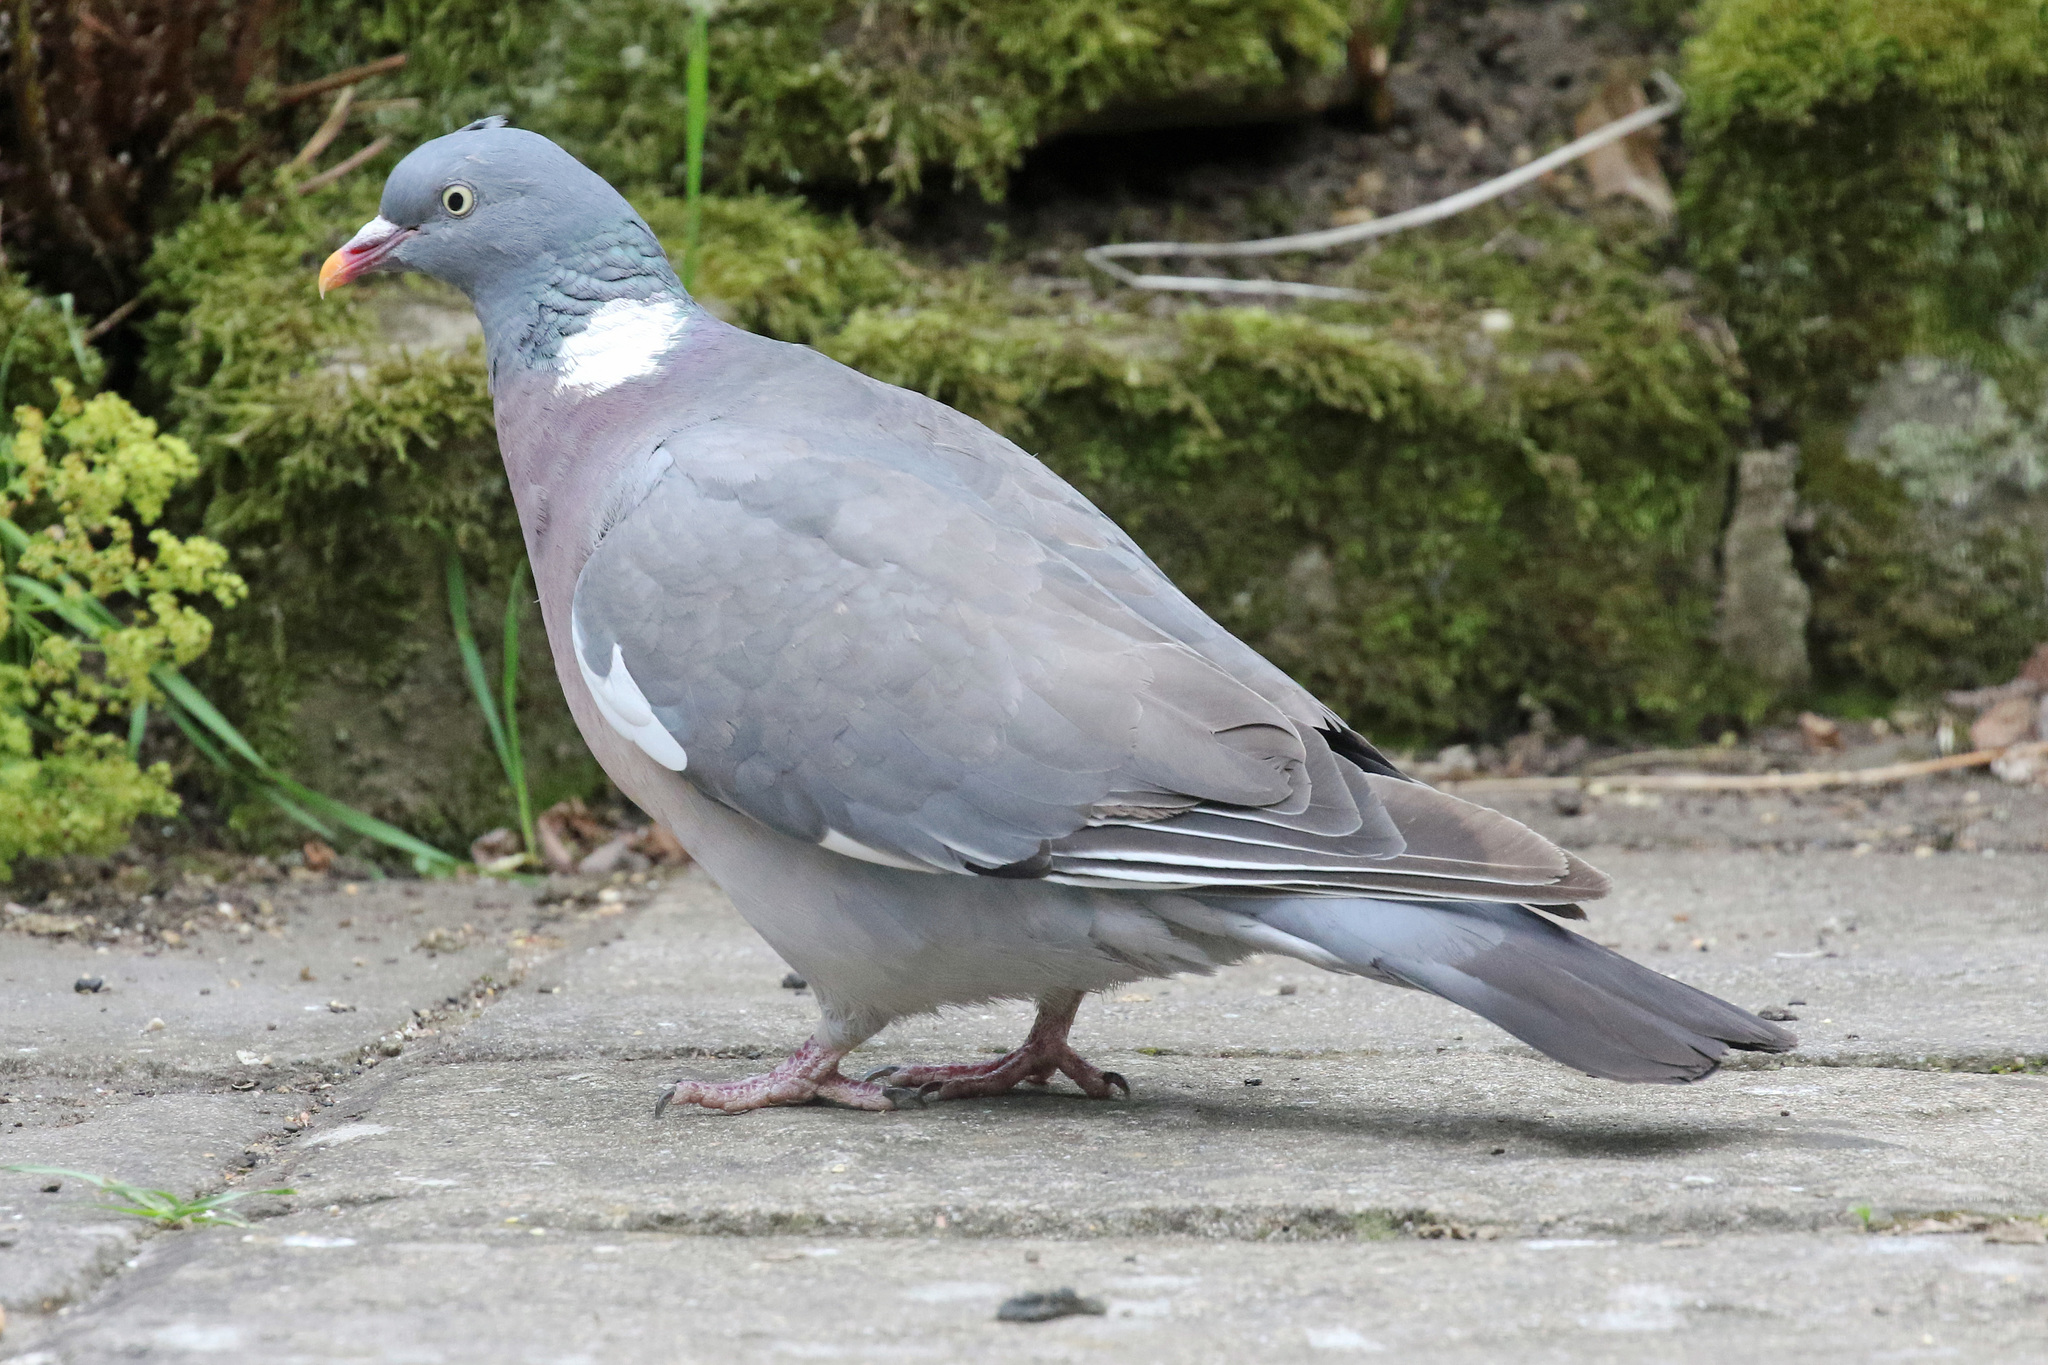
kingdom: Animalia
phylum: Chordata
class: Aves
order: Columbiformes
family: Columbidae
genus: Columba
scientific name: Columba palumbus
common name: Common wood pigeon
